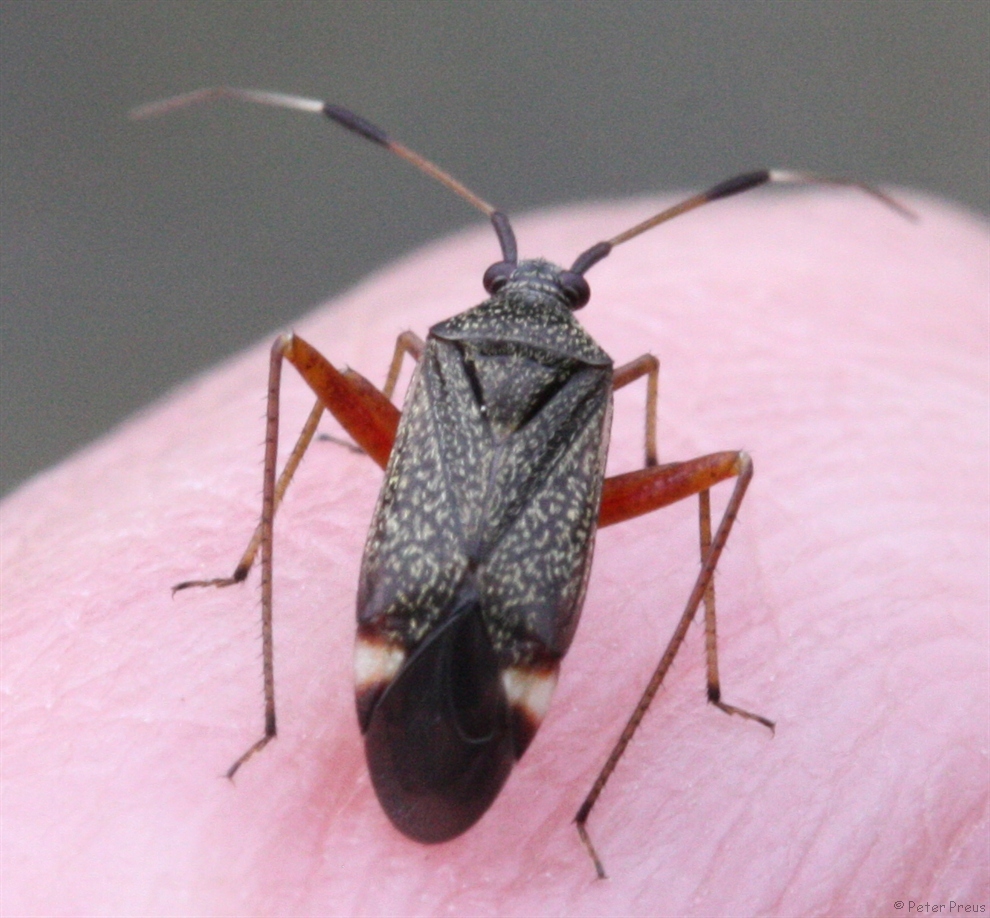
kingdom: Animalia
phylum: Arthropoda
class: Insecta
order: Hemiptera
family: Miridae
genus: Closterotomus
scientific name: Closterotomus biclavatus
